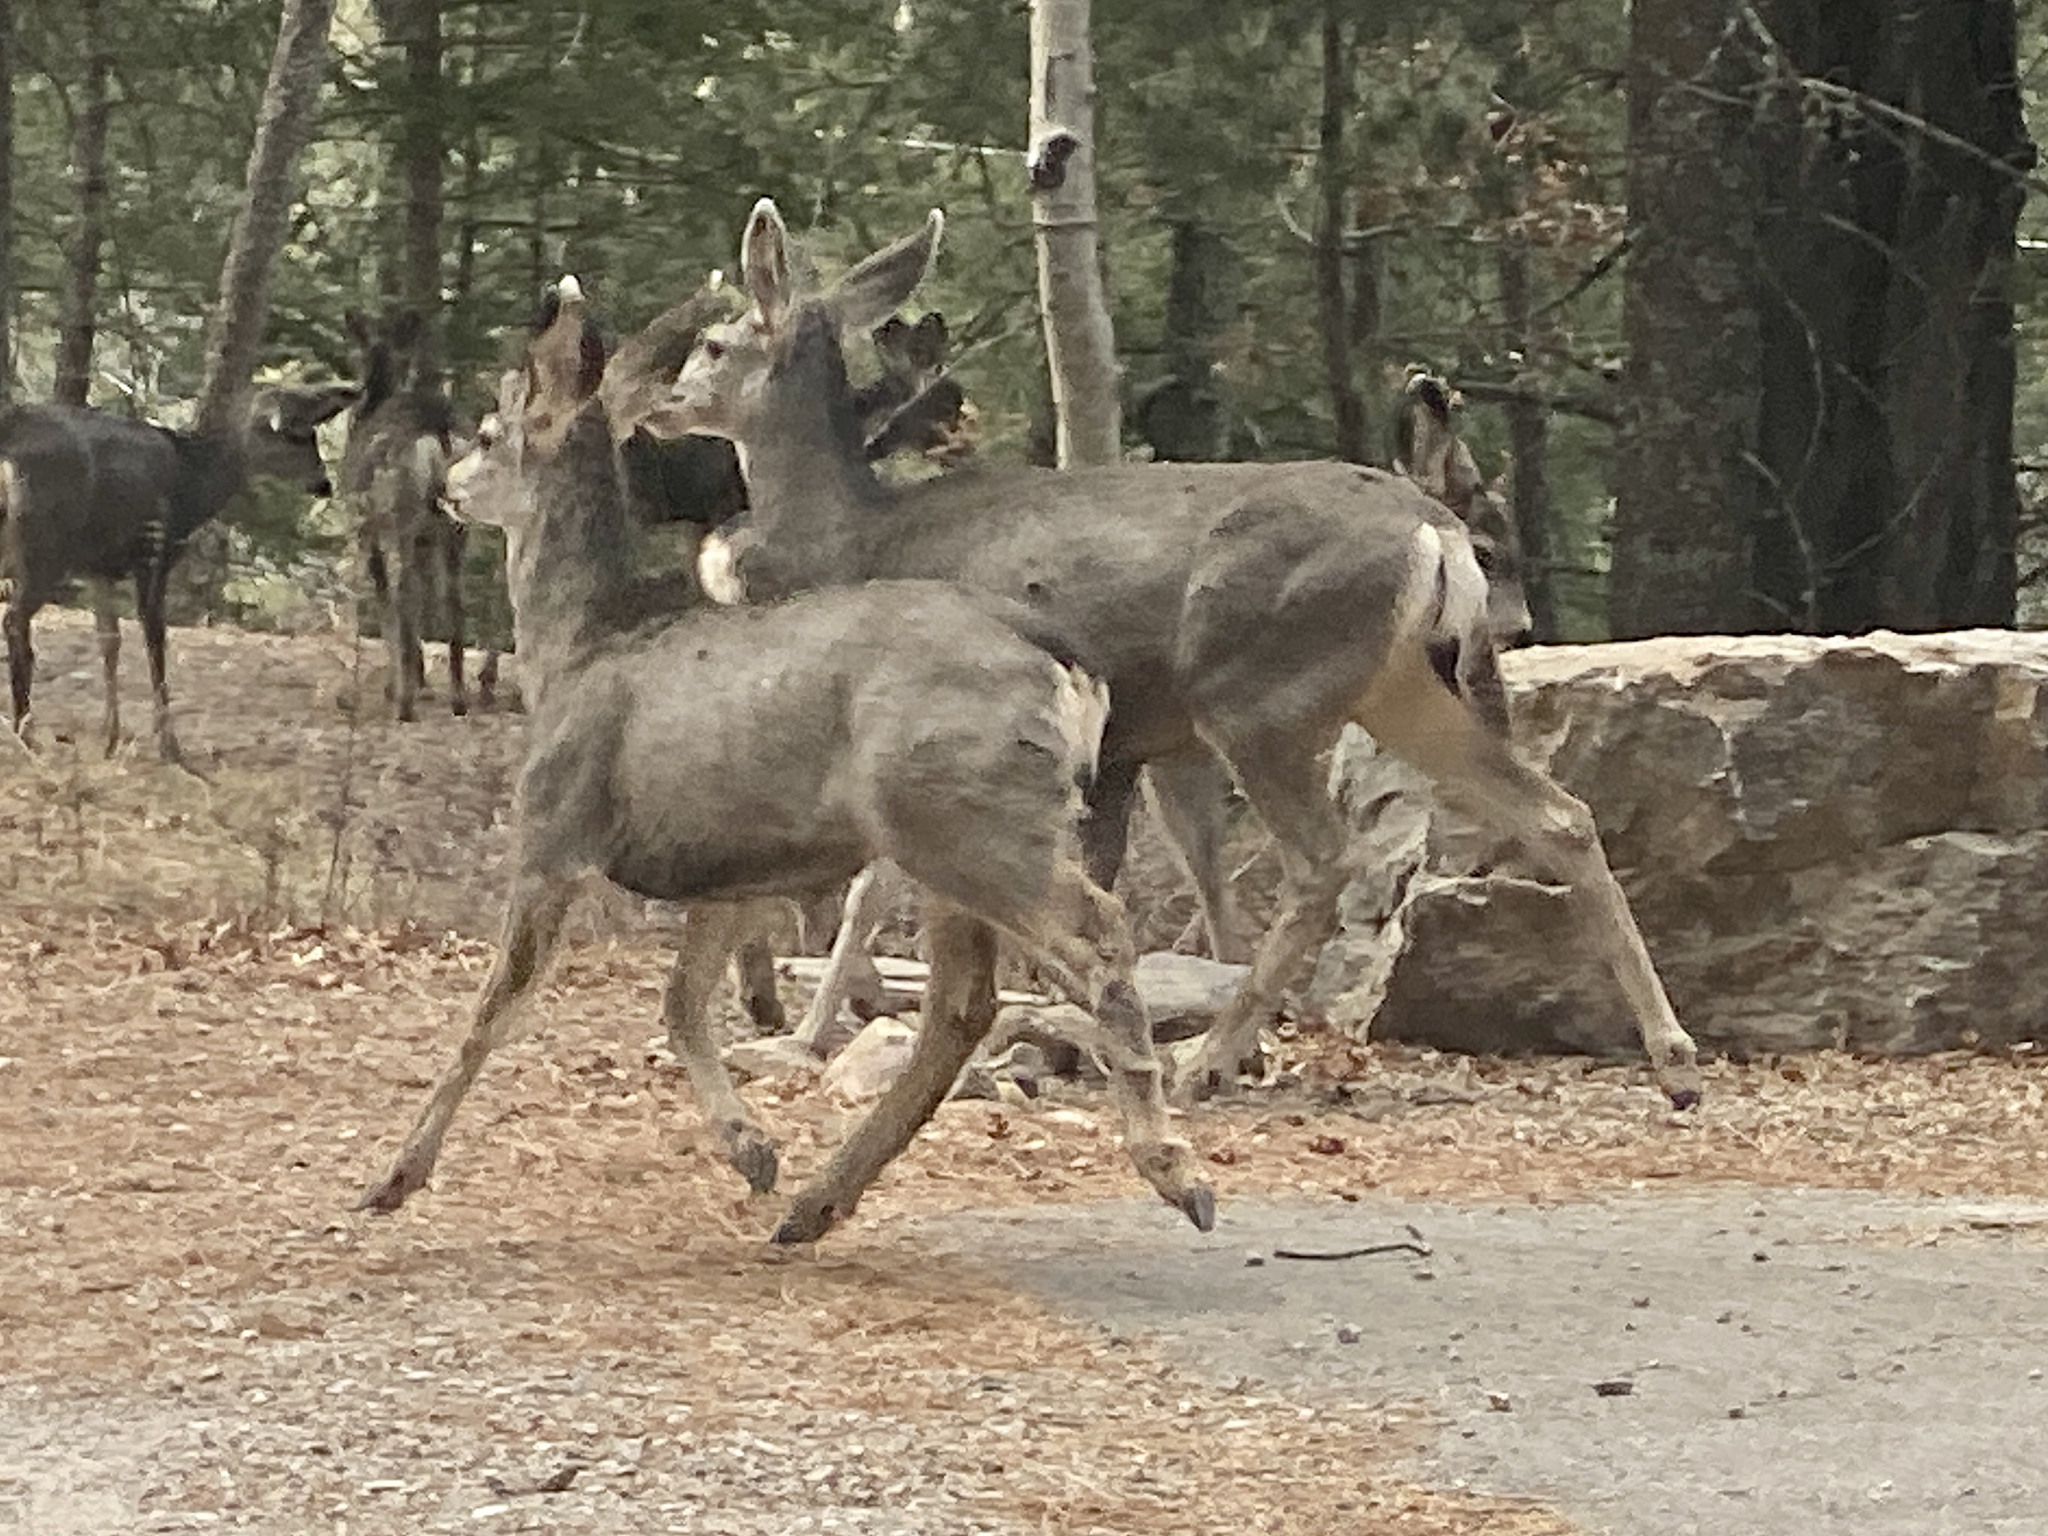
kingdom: Animalia
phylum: Chordata
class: Mammalia
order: Artiodactyla
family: Cervidae
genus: Odocoileus
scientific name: Odocoileus hemionus
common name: Mule deer
